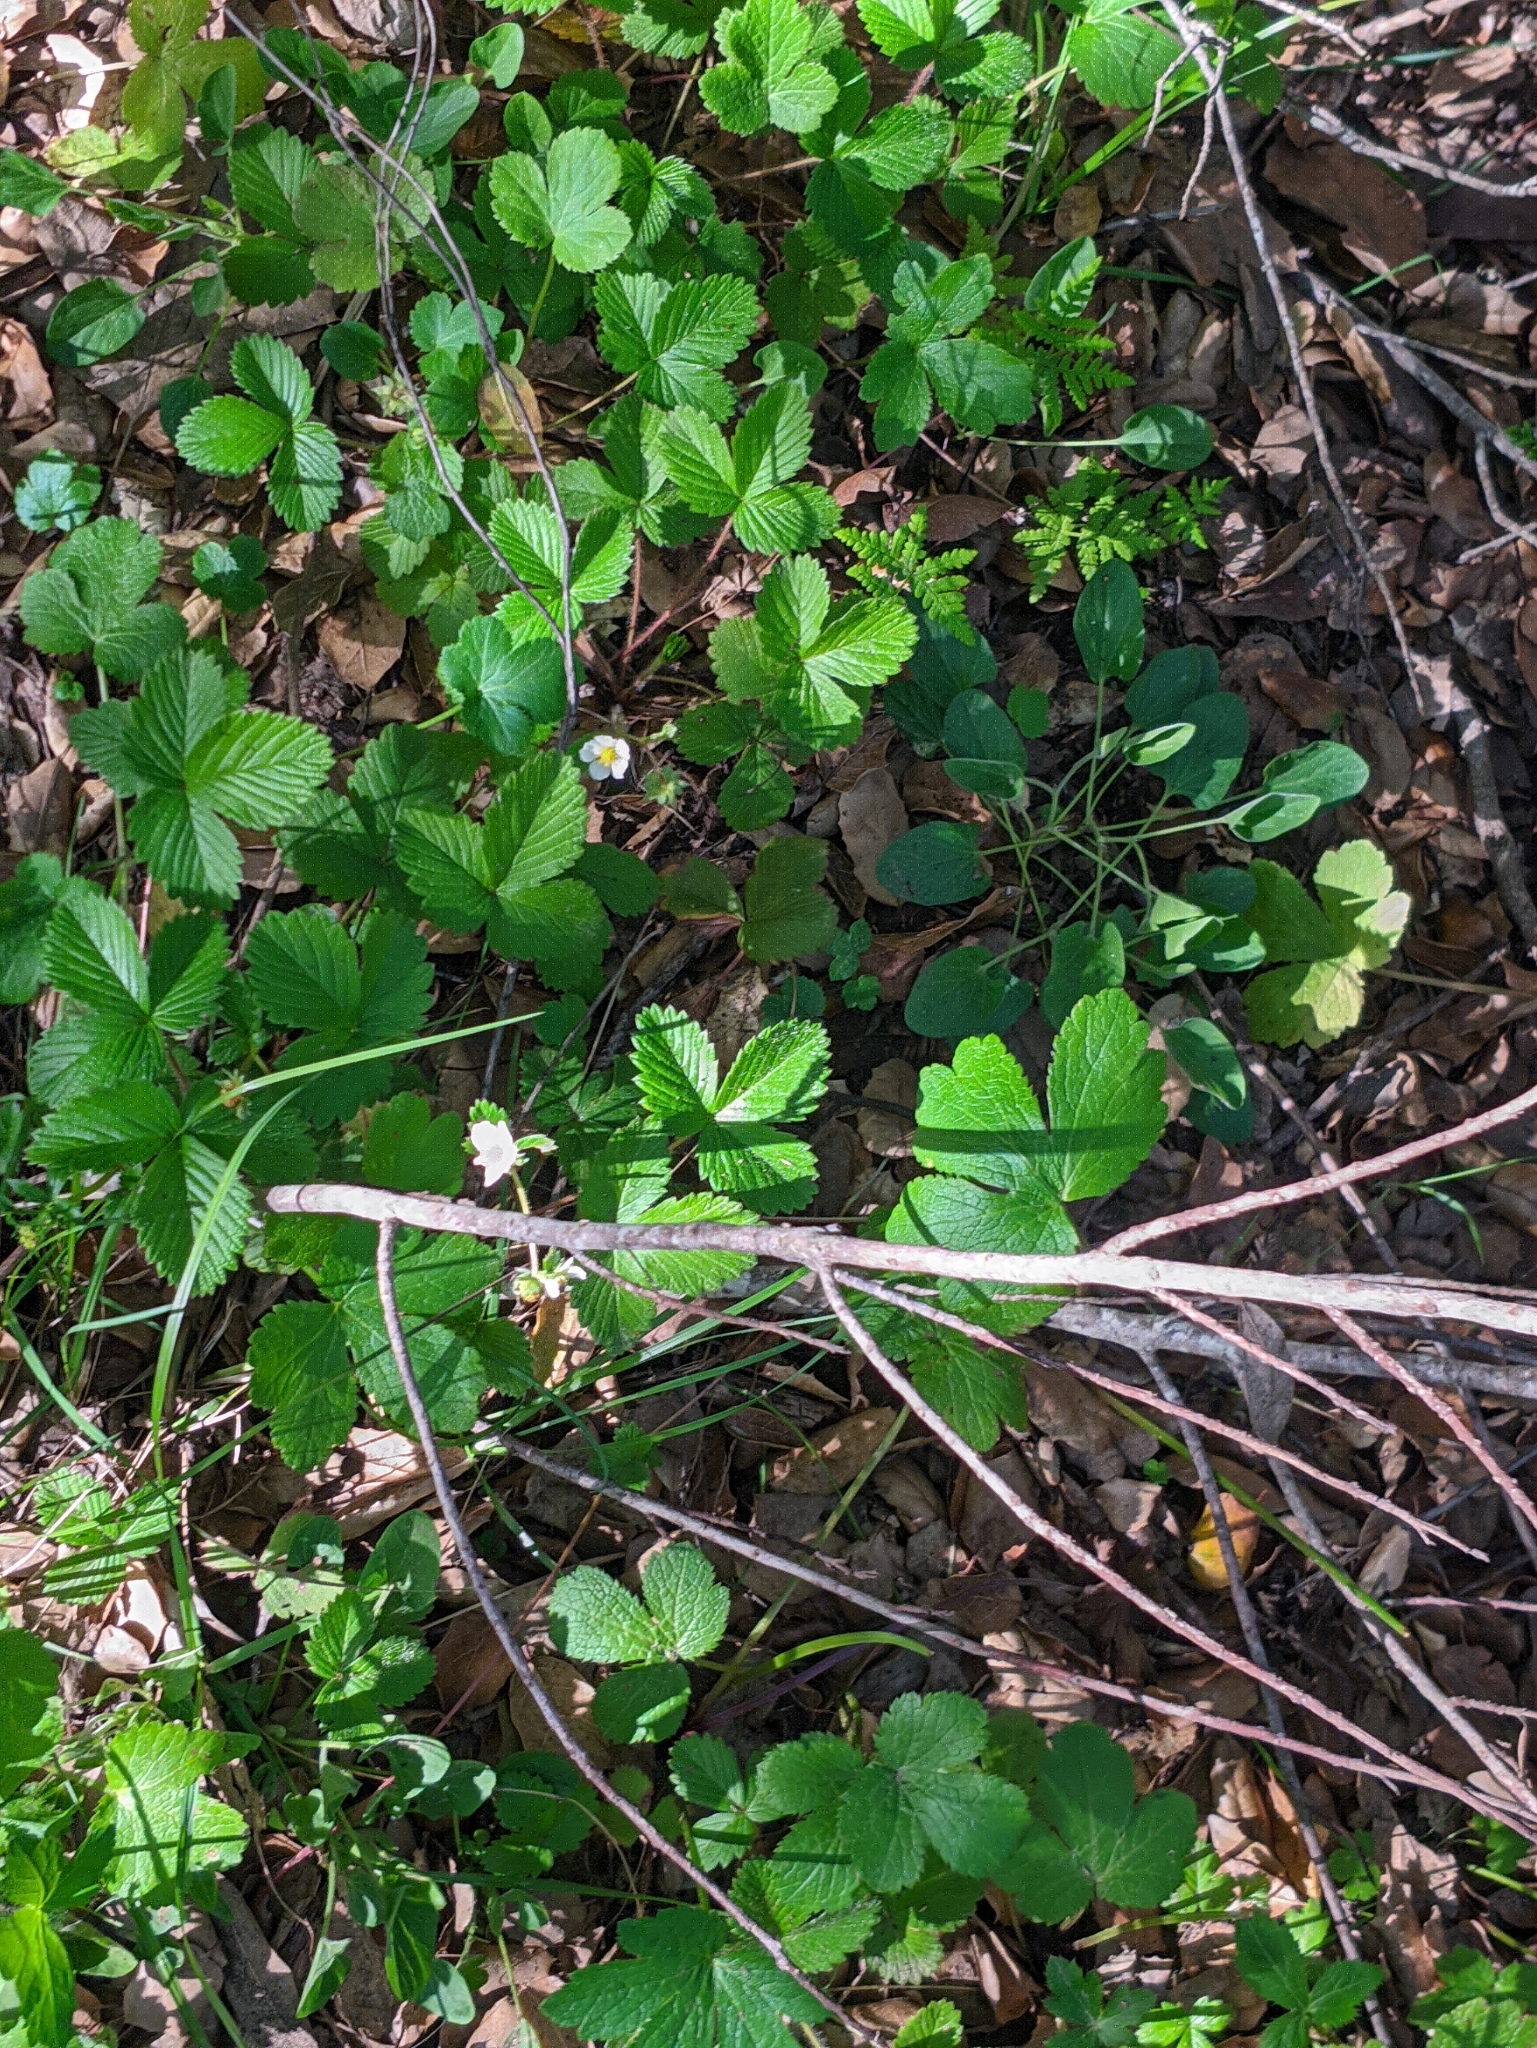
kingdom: Plantae
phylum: Tracheophyta
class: Magnoliopsida
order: Rosales
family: Rosaceae
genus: Fragaria
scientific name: Fragaria vesca
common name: Wild strawberry
